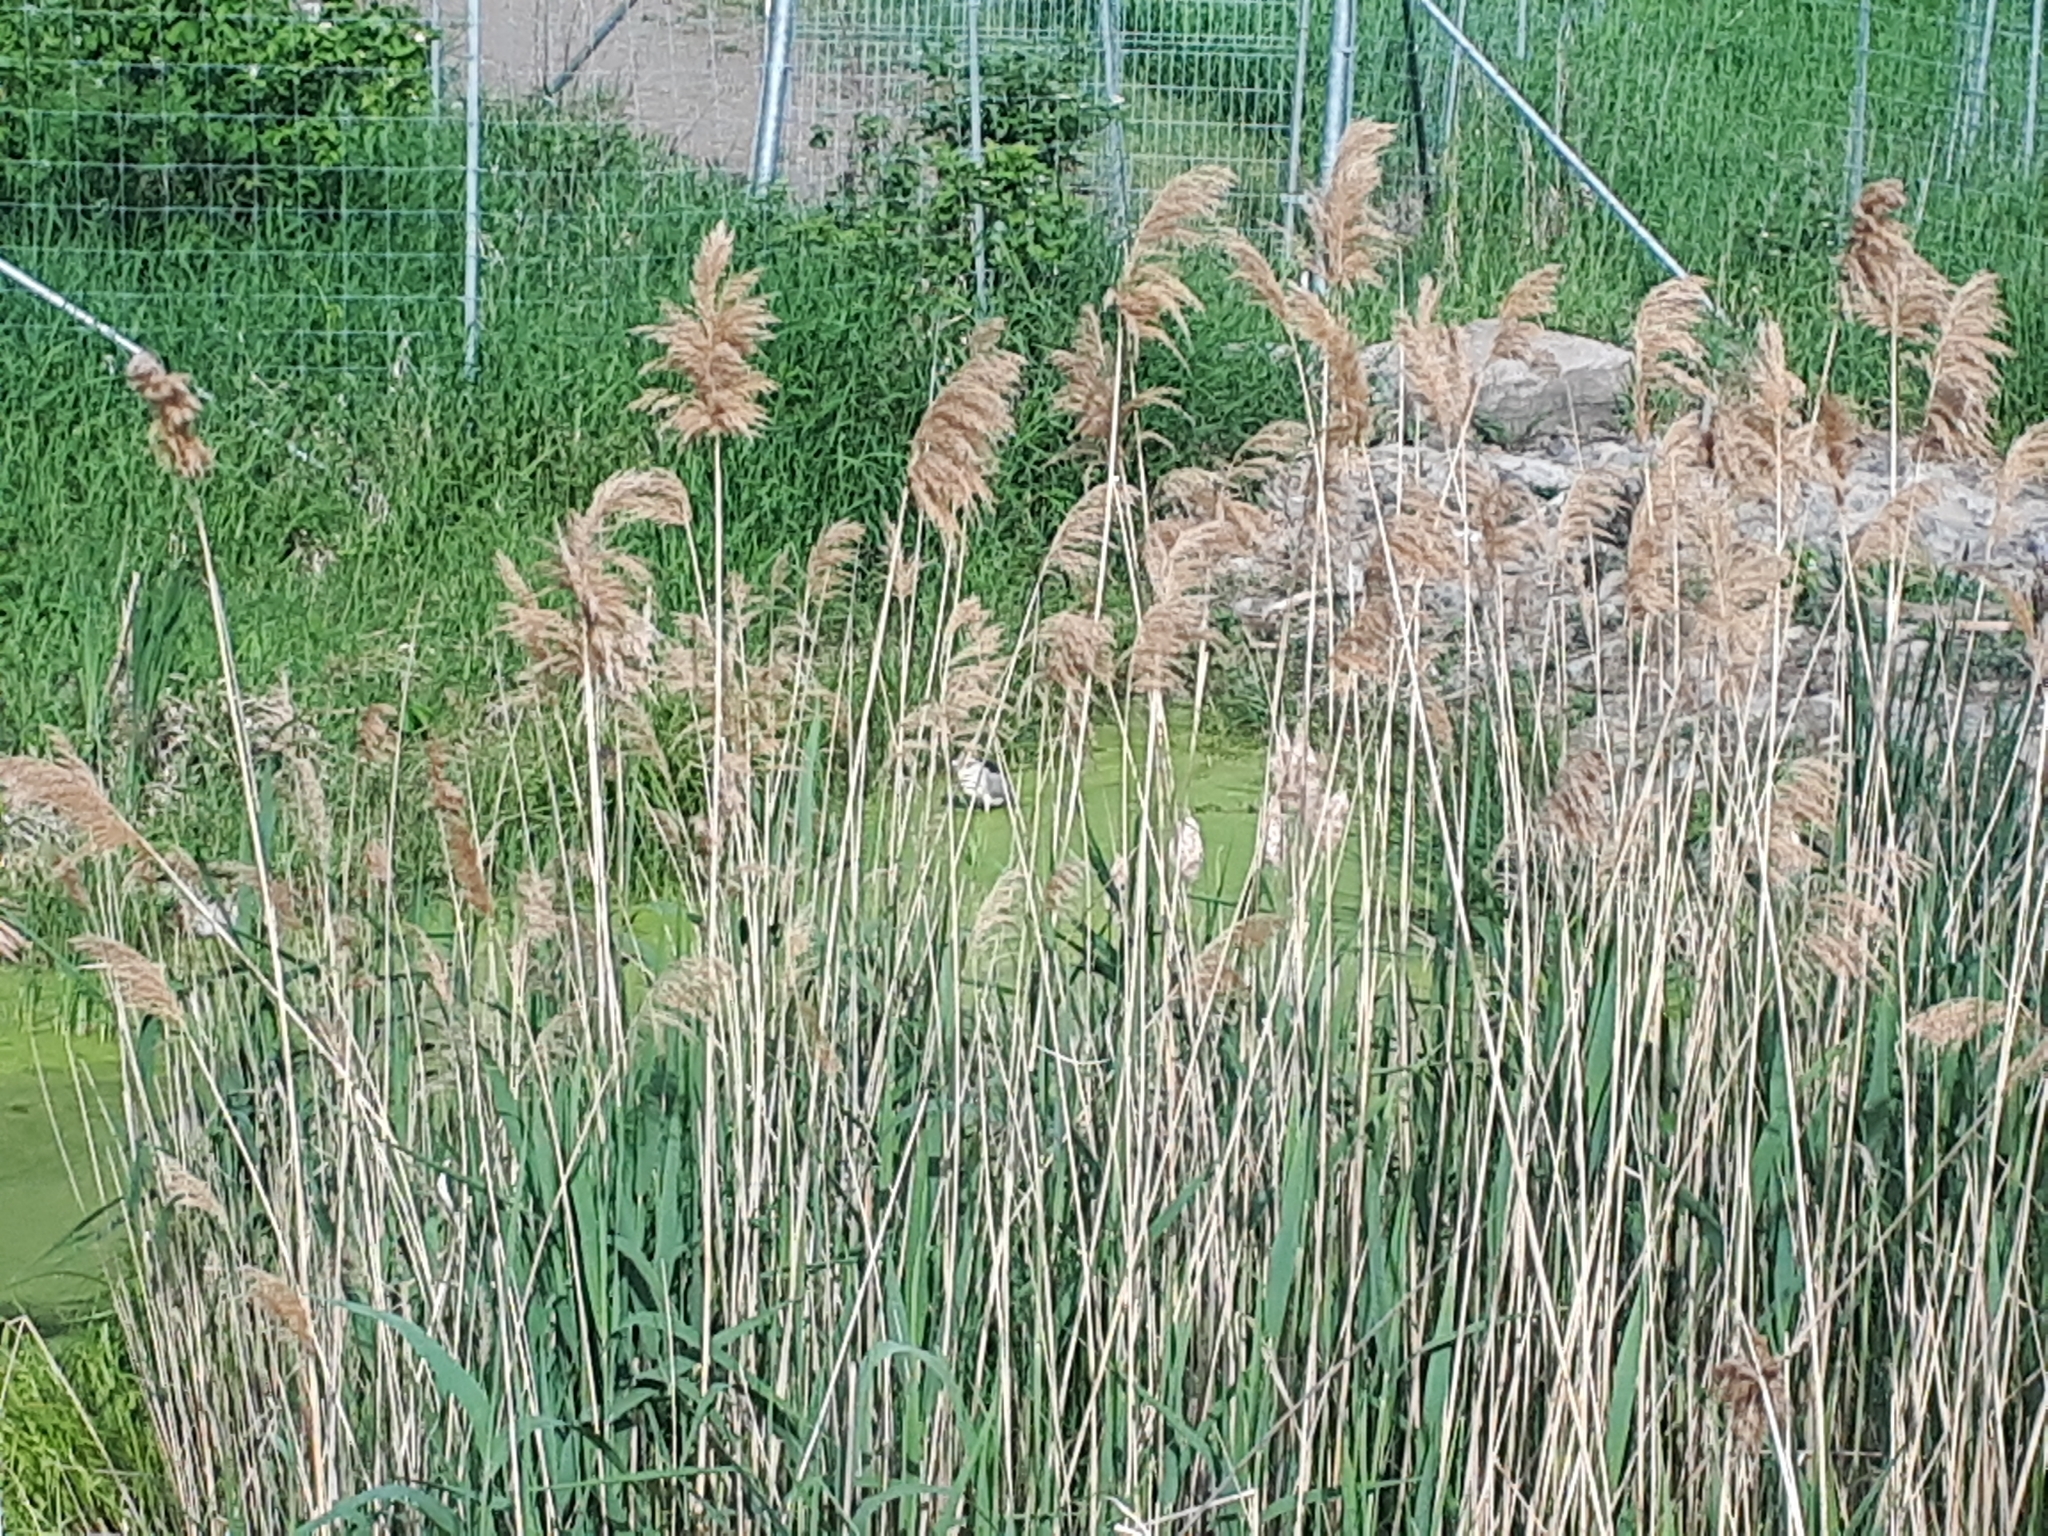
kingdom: Plantae
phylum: Tracheophyta
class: Liliopsida
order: Poales
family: Poaceae
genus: Phragmites
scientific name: Phragmites australis
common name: Common reed
